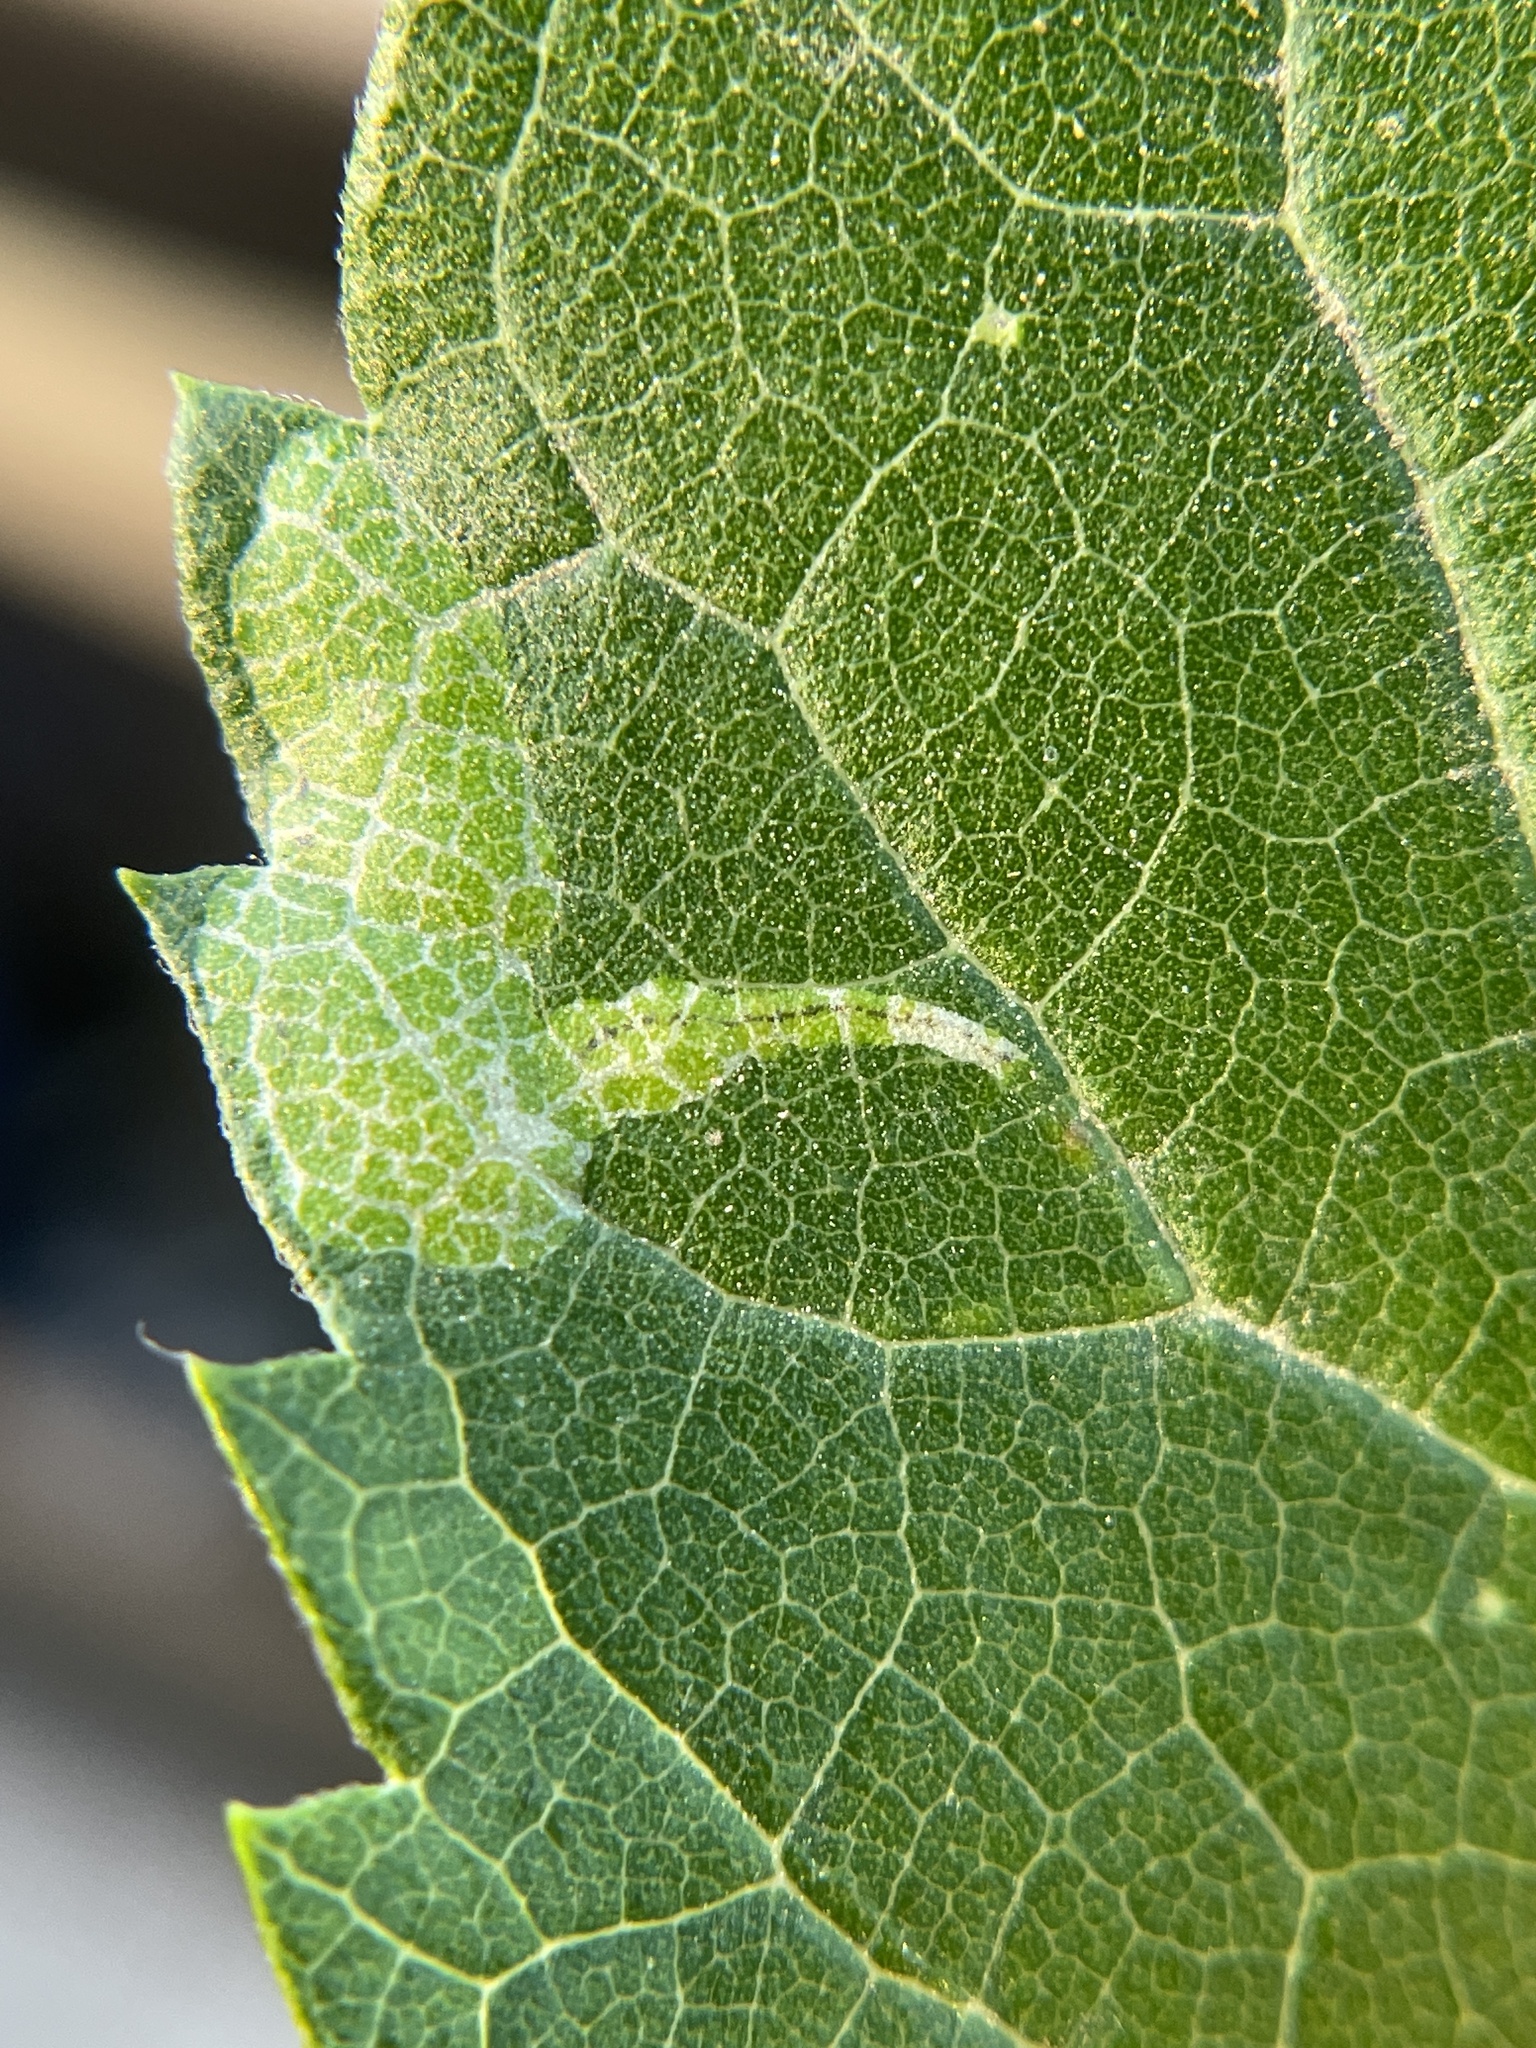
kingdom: Animalia
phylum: Arthropoda
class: Insecta
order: Lepidoptera
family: Gracillariidae
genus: Phyllonorycter
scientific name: Phyllonorycter celtisella
